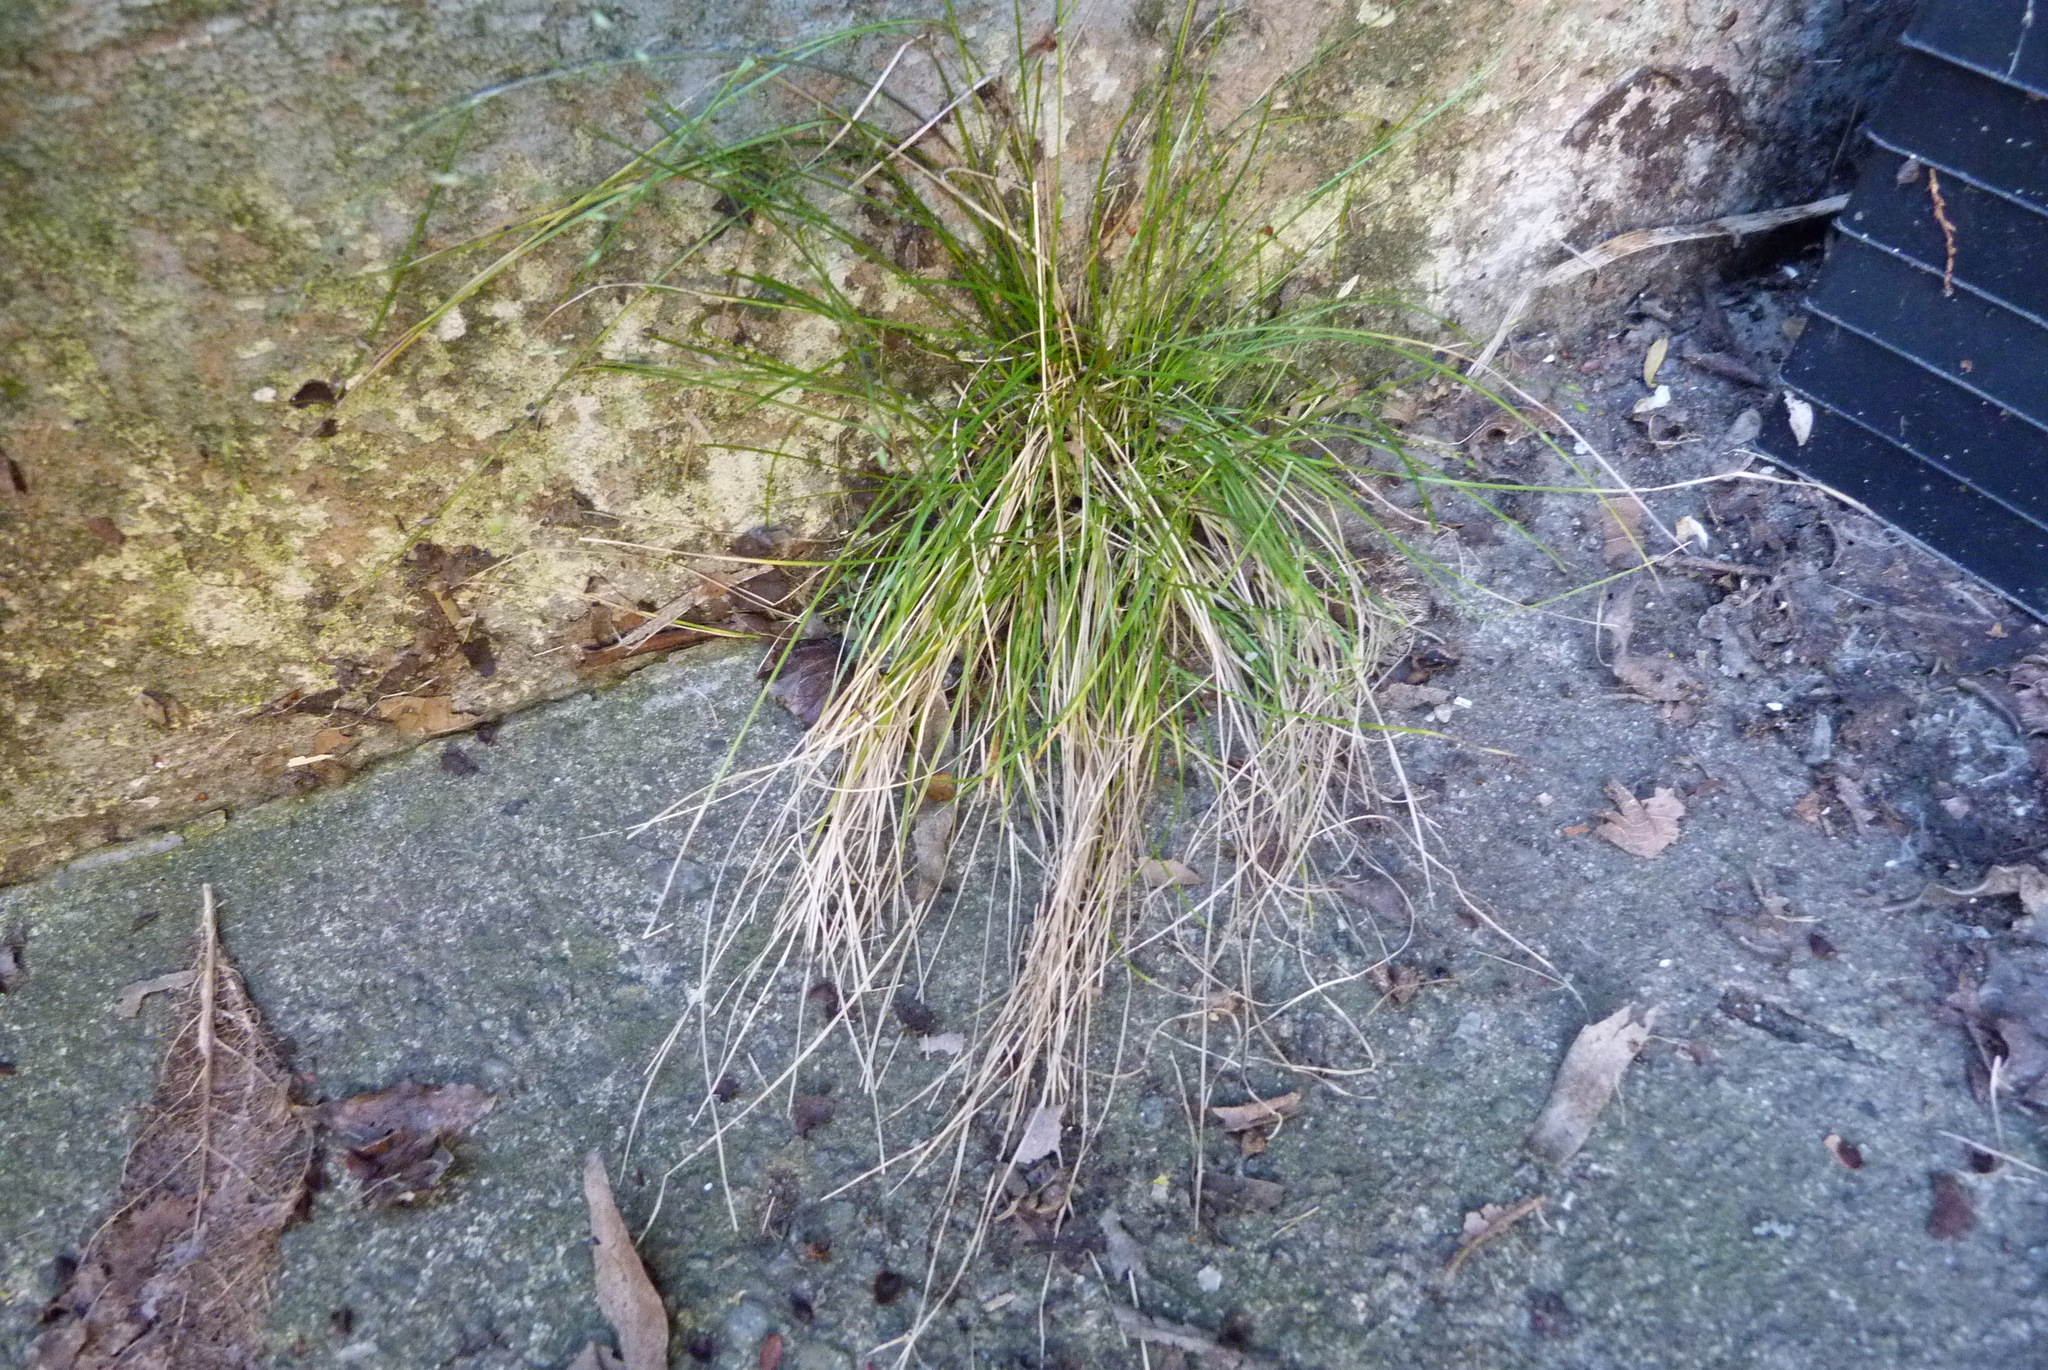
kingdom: Plantae
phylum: Tracheophyta
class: Liliopsida
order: Poales
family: Poaceae
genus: Poa
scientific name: Poa imbecilla
